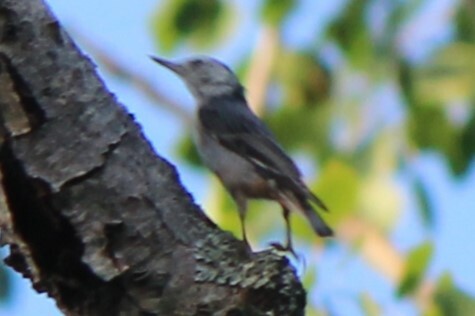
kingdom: Animalia
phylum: Chordata
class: Aves
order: Passeriformes
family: Sittidae
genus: Sitta
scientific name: Sitta carolinensis
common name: White-breasted nuthatch
